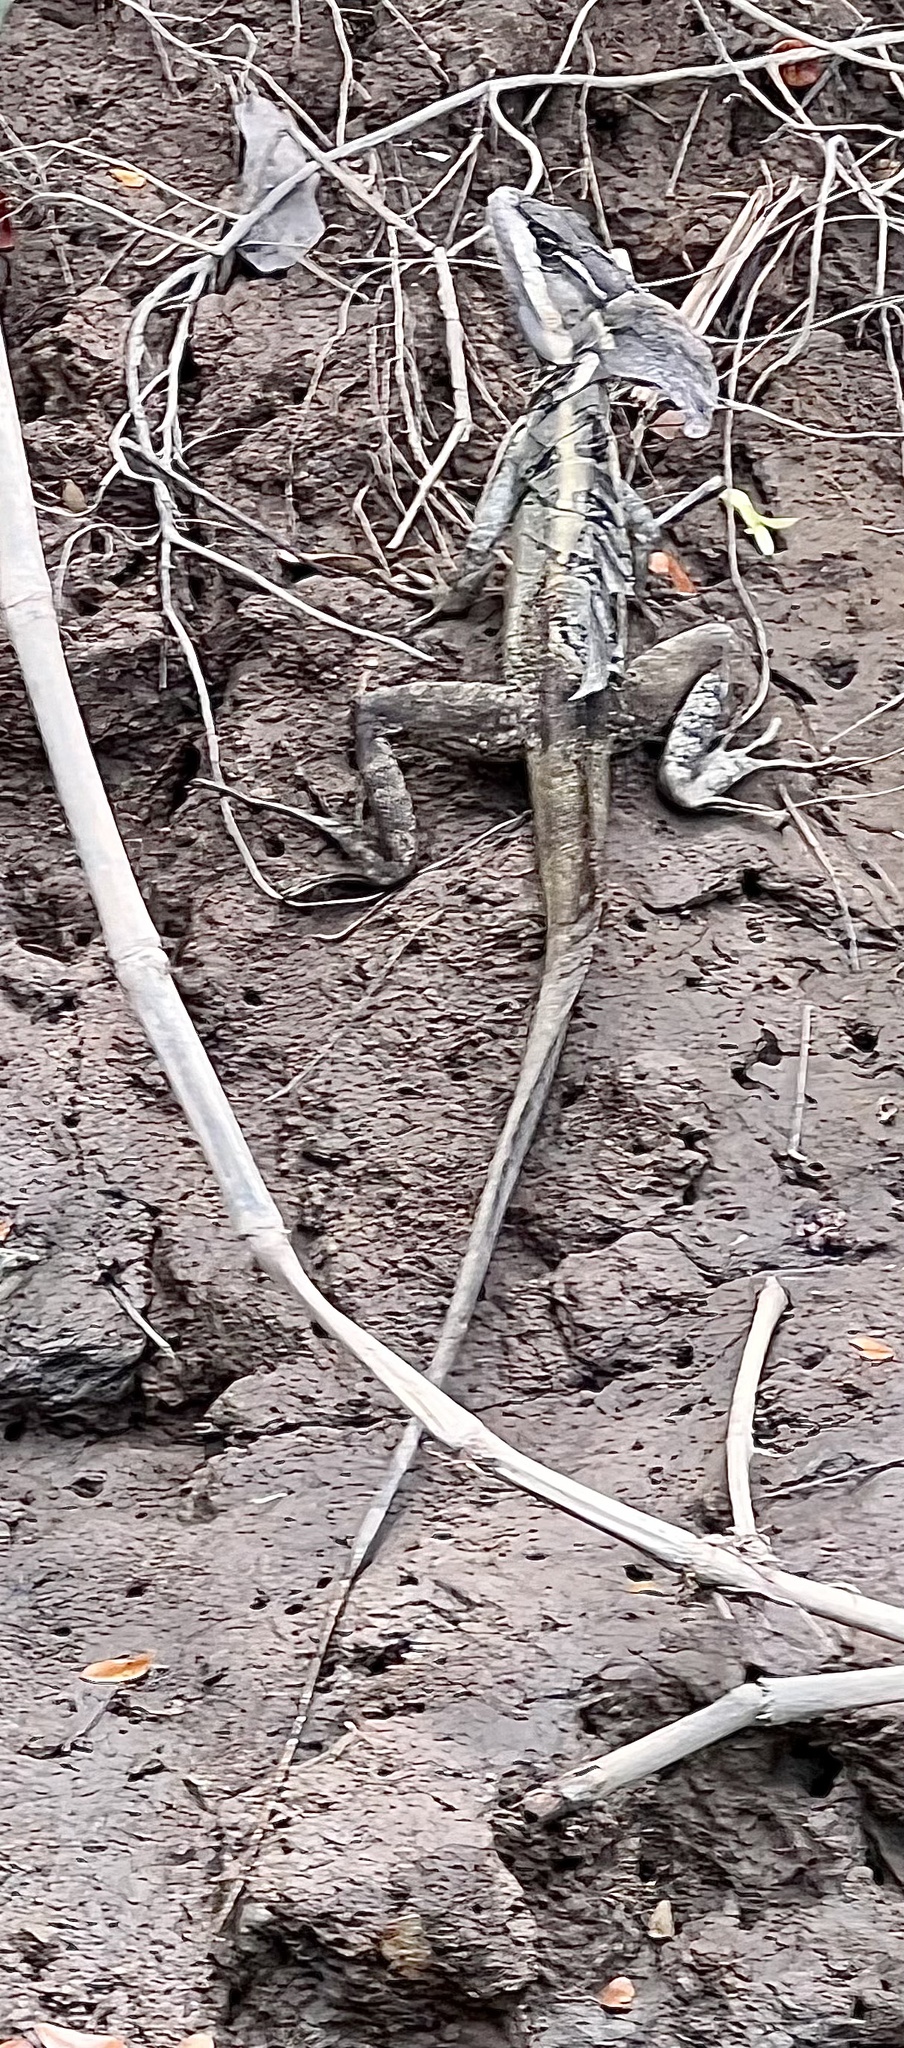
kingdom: Animalia
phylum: Chordata
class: Squamata
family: Corytophanidae
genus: Basiliscus
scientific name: Basiliscus basiliscus
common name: Common basilisk
